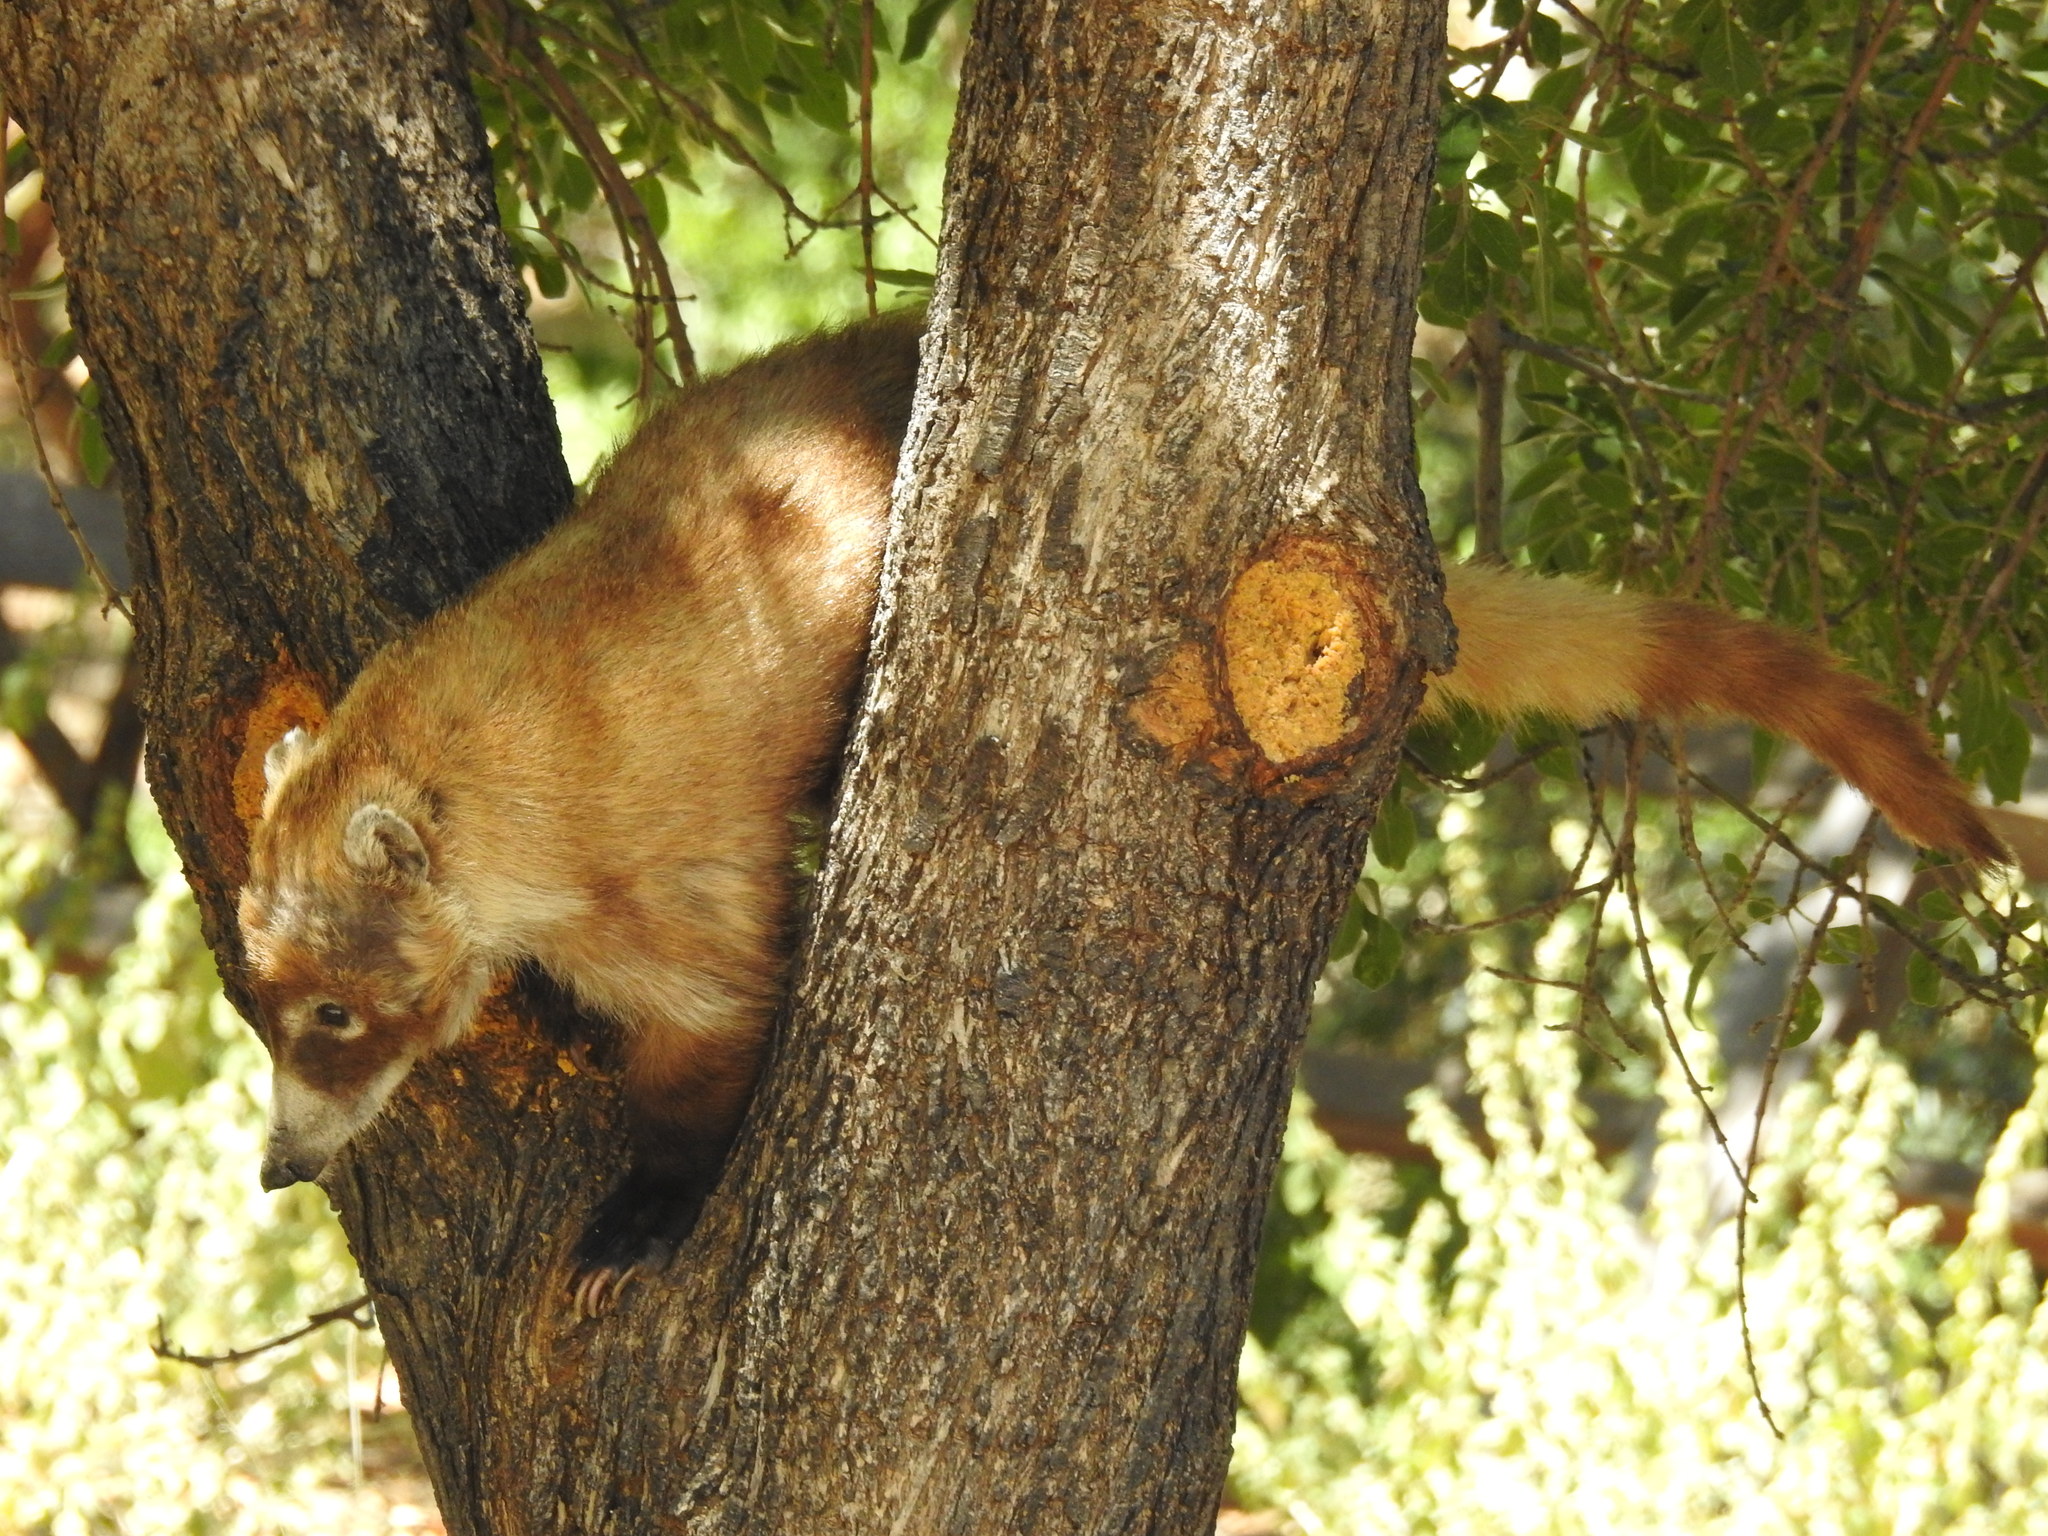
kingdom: Animalia
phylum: Chordata
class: Mammalia
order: Carnivora
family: Procyonidae
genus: Nasua
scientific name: Nasua narica
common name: White-nosed coati
